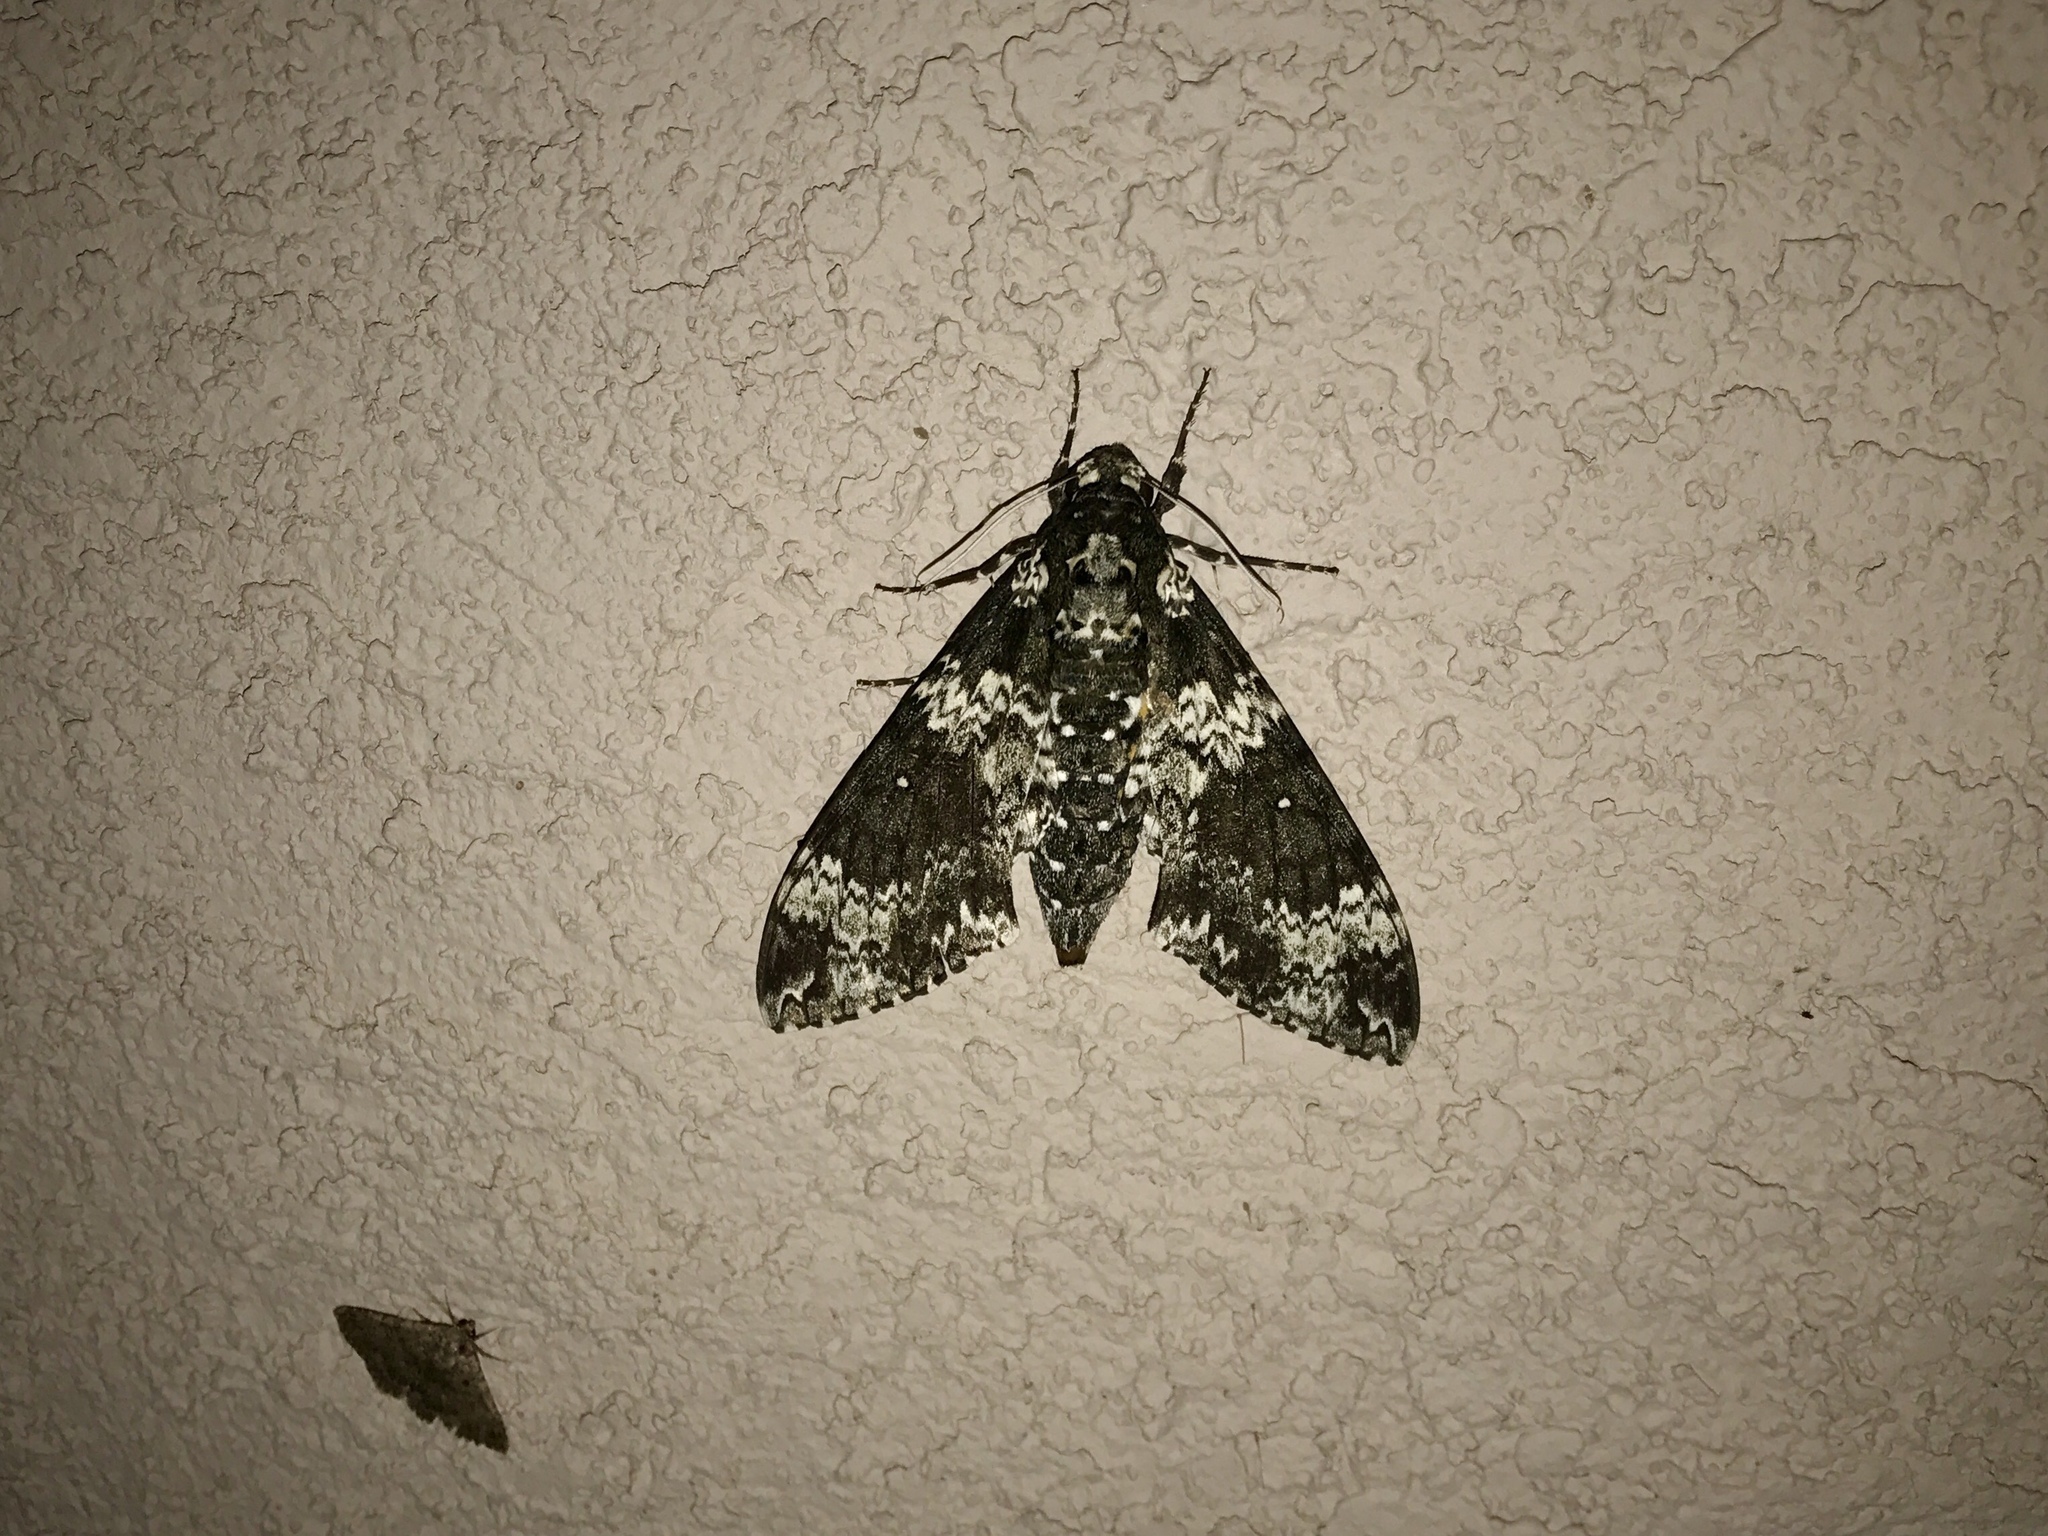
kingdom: Animalia
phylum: Arthropoda
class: Insecta
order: Lepidoptera
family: Sphingidae
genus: Manduca
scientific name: Manduca rustica
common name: Rustic sphinx
